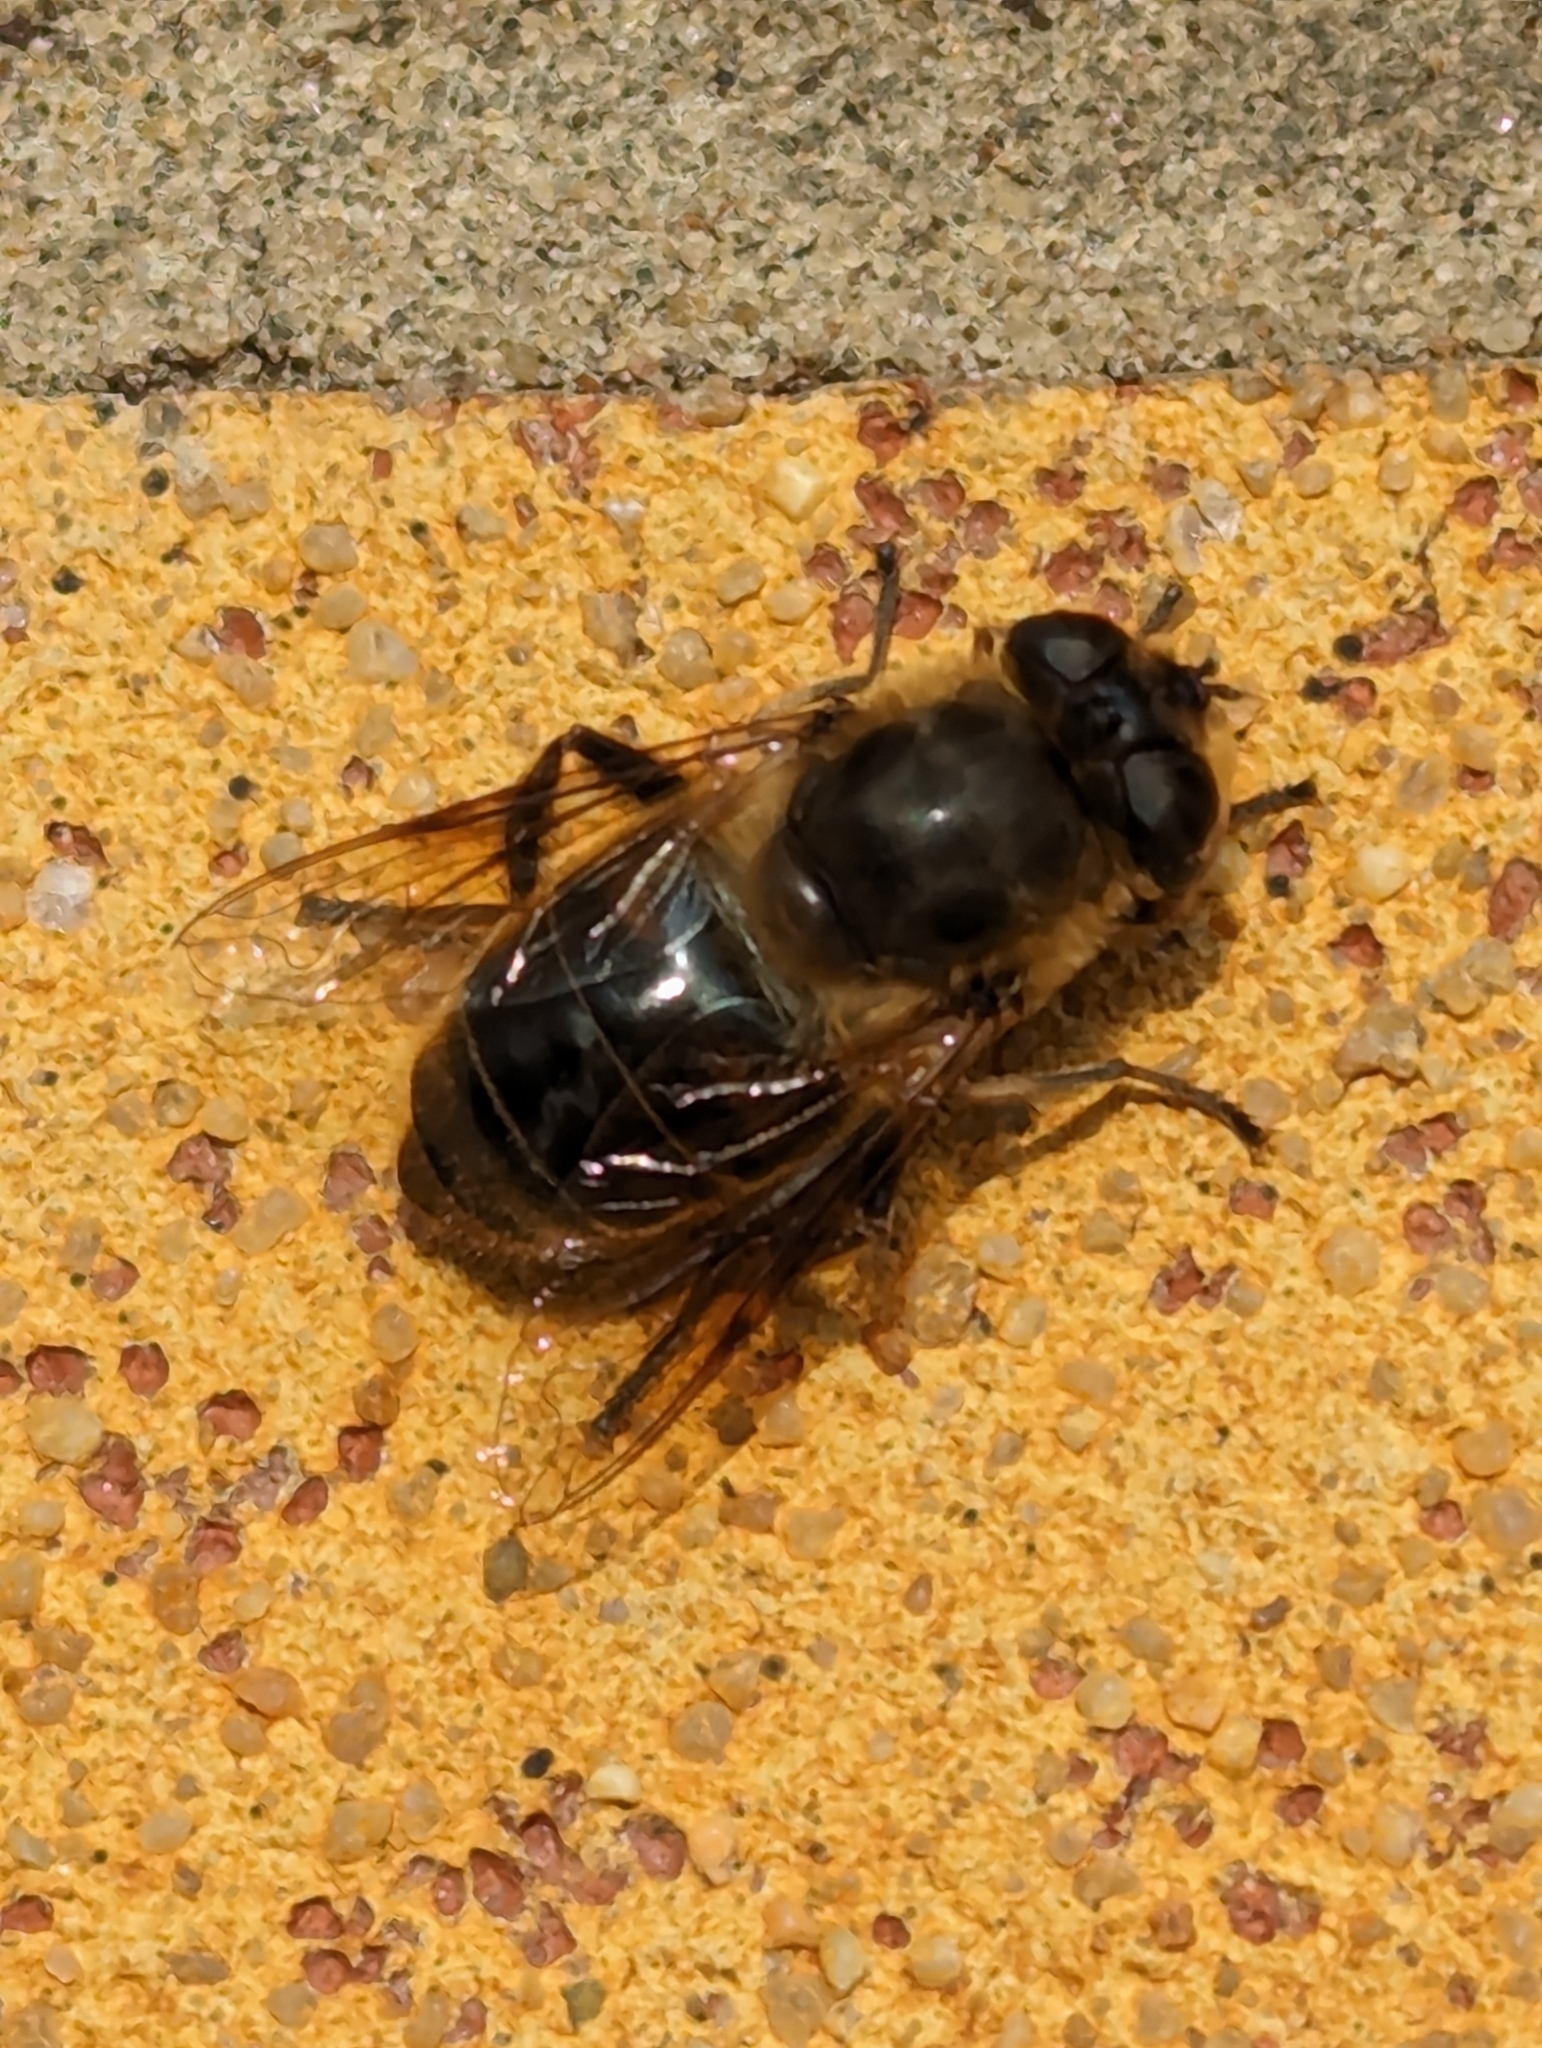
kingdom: Animalia
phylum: Arthropoda
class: Insecta
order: Diptera
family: Syrphidae
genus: Eristalis
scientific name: Eristalis tenax
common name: Drone fly
